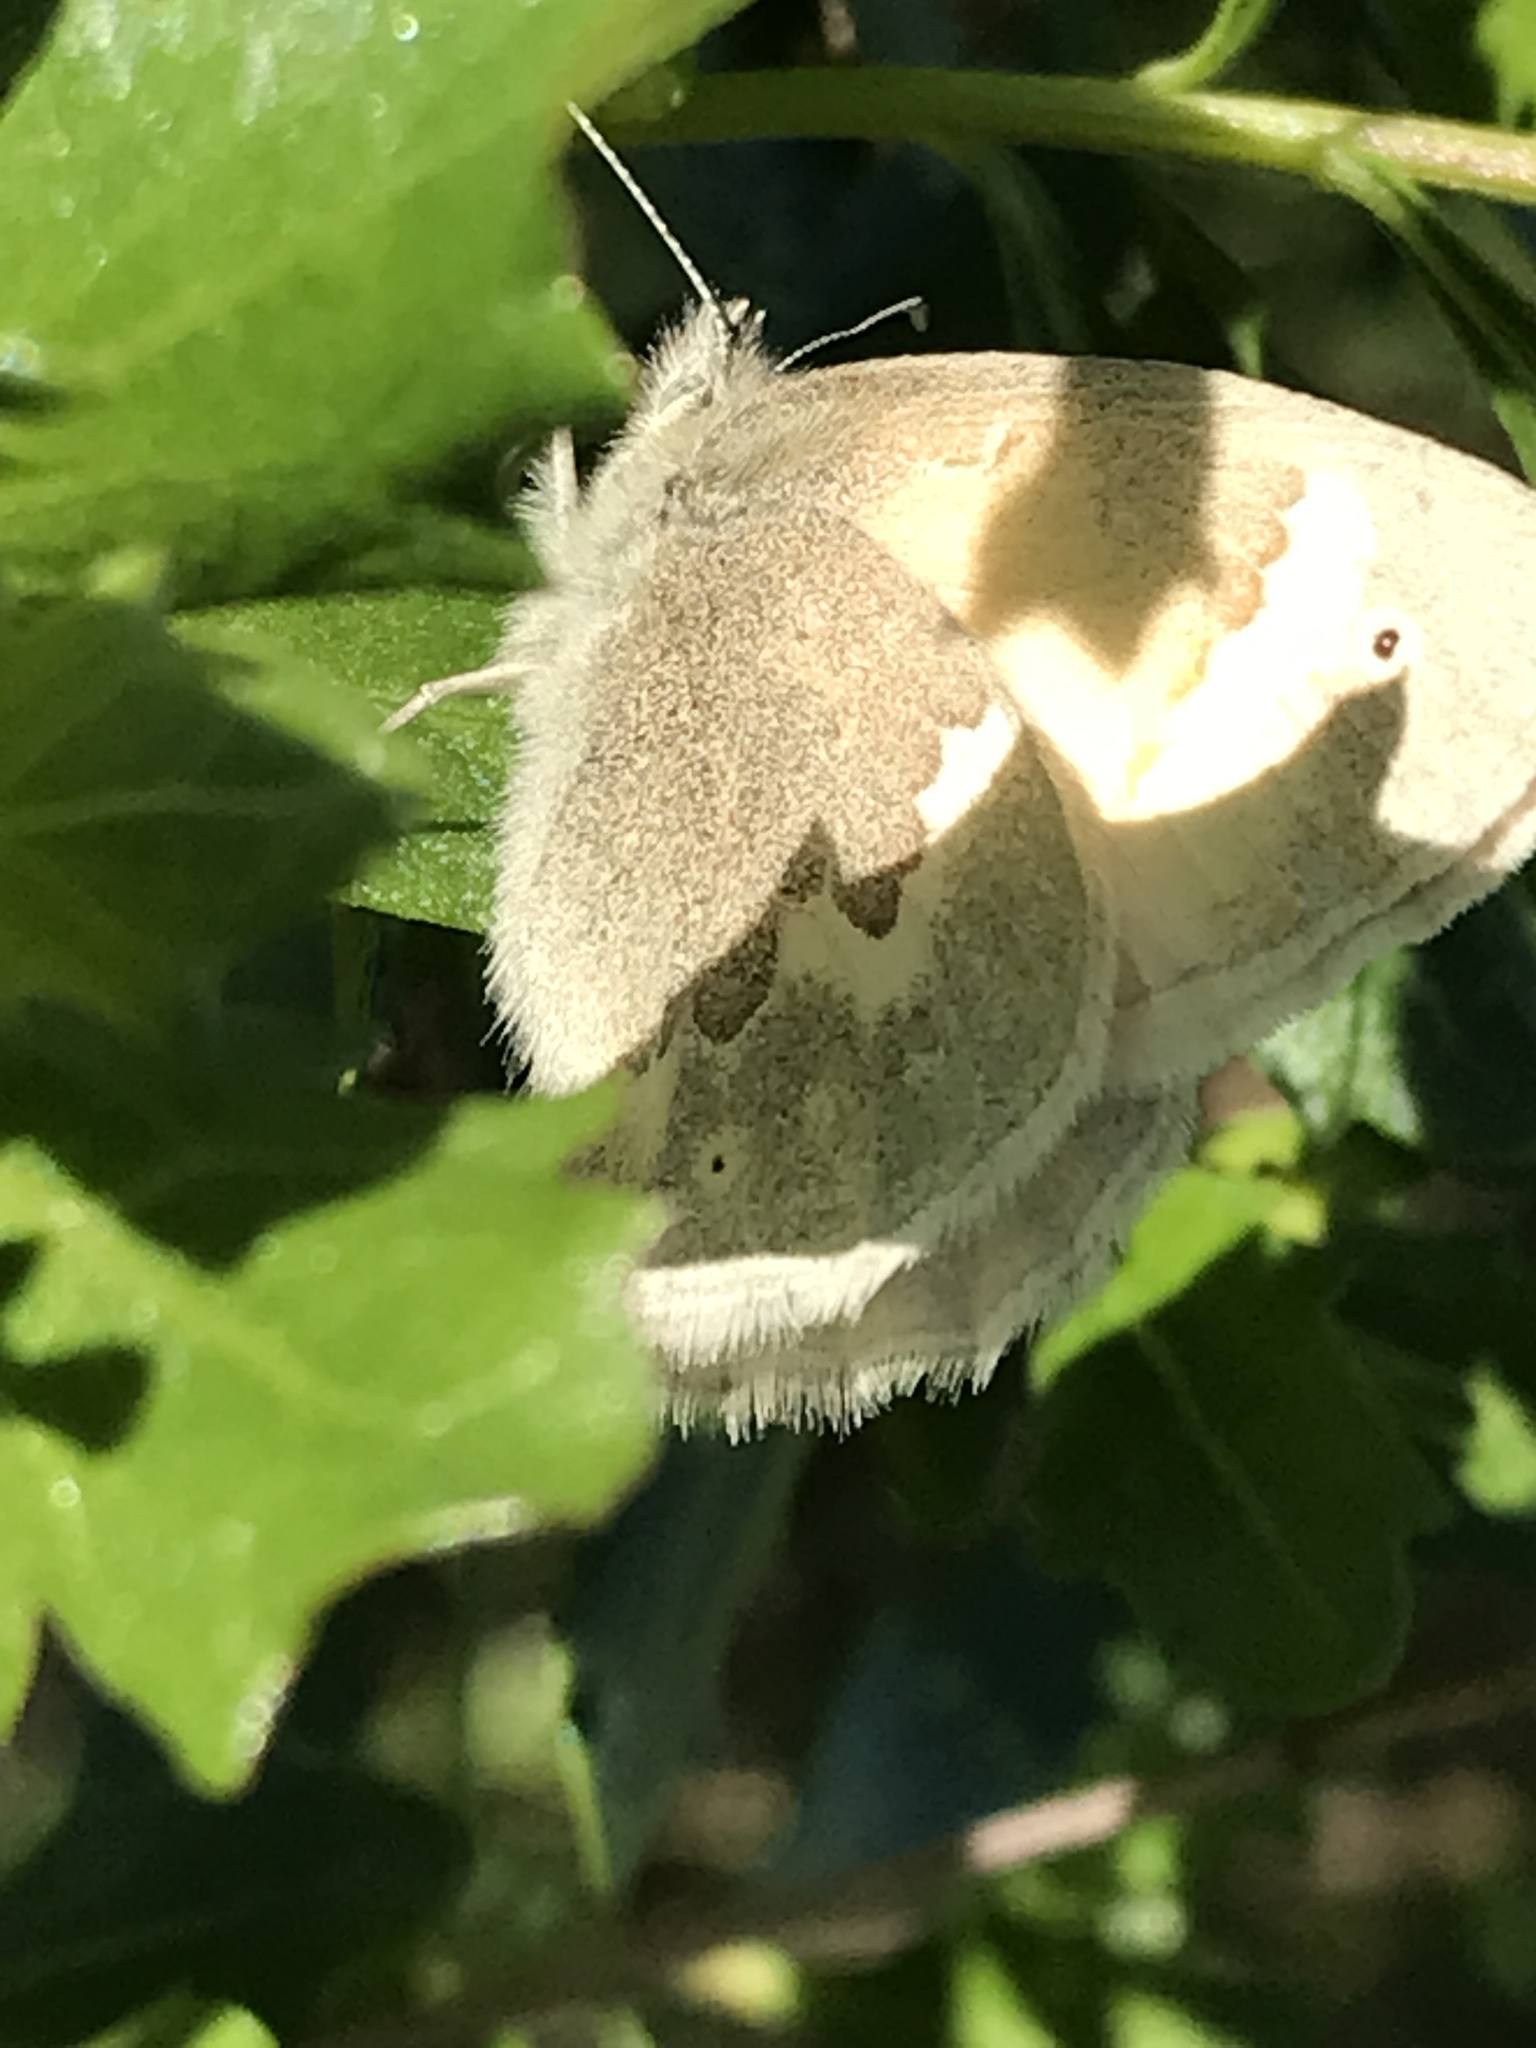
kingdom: Animalia
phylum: Arthropoda
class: Insecta
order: Lepidoptera
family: Nymphalidae
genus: Coenonympha
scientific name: Coenonympha california
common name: Common ringlet
